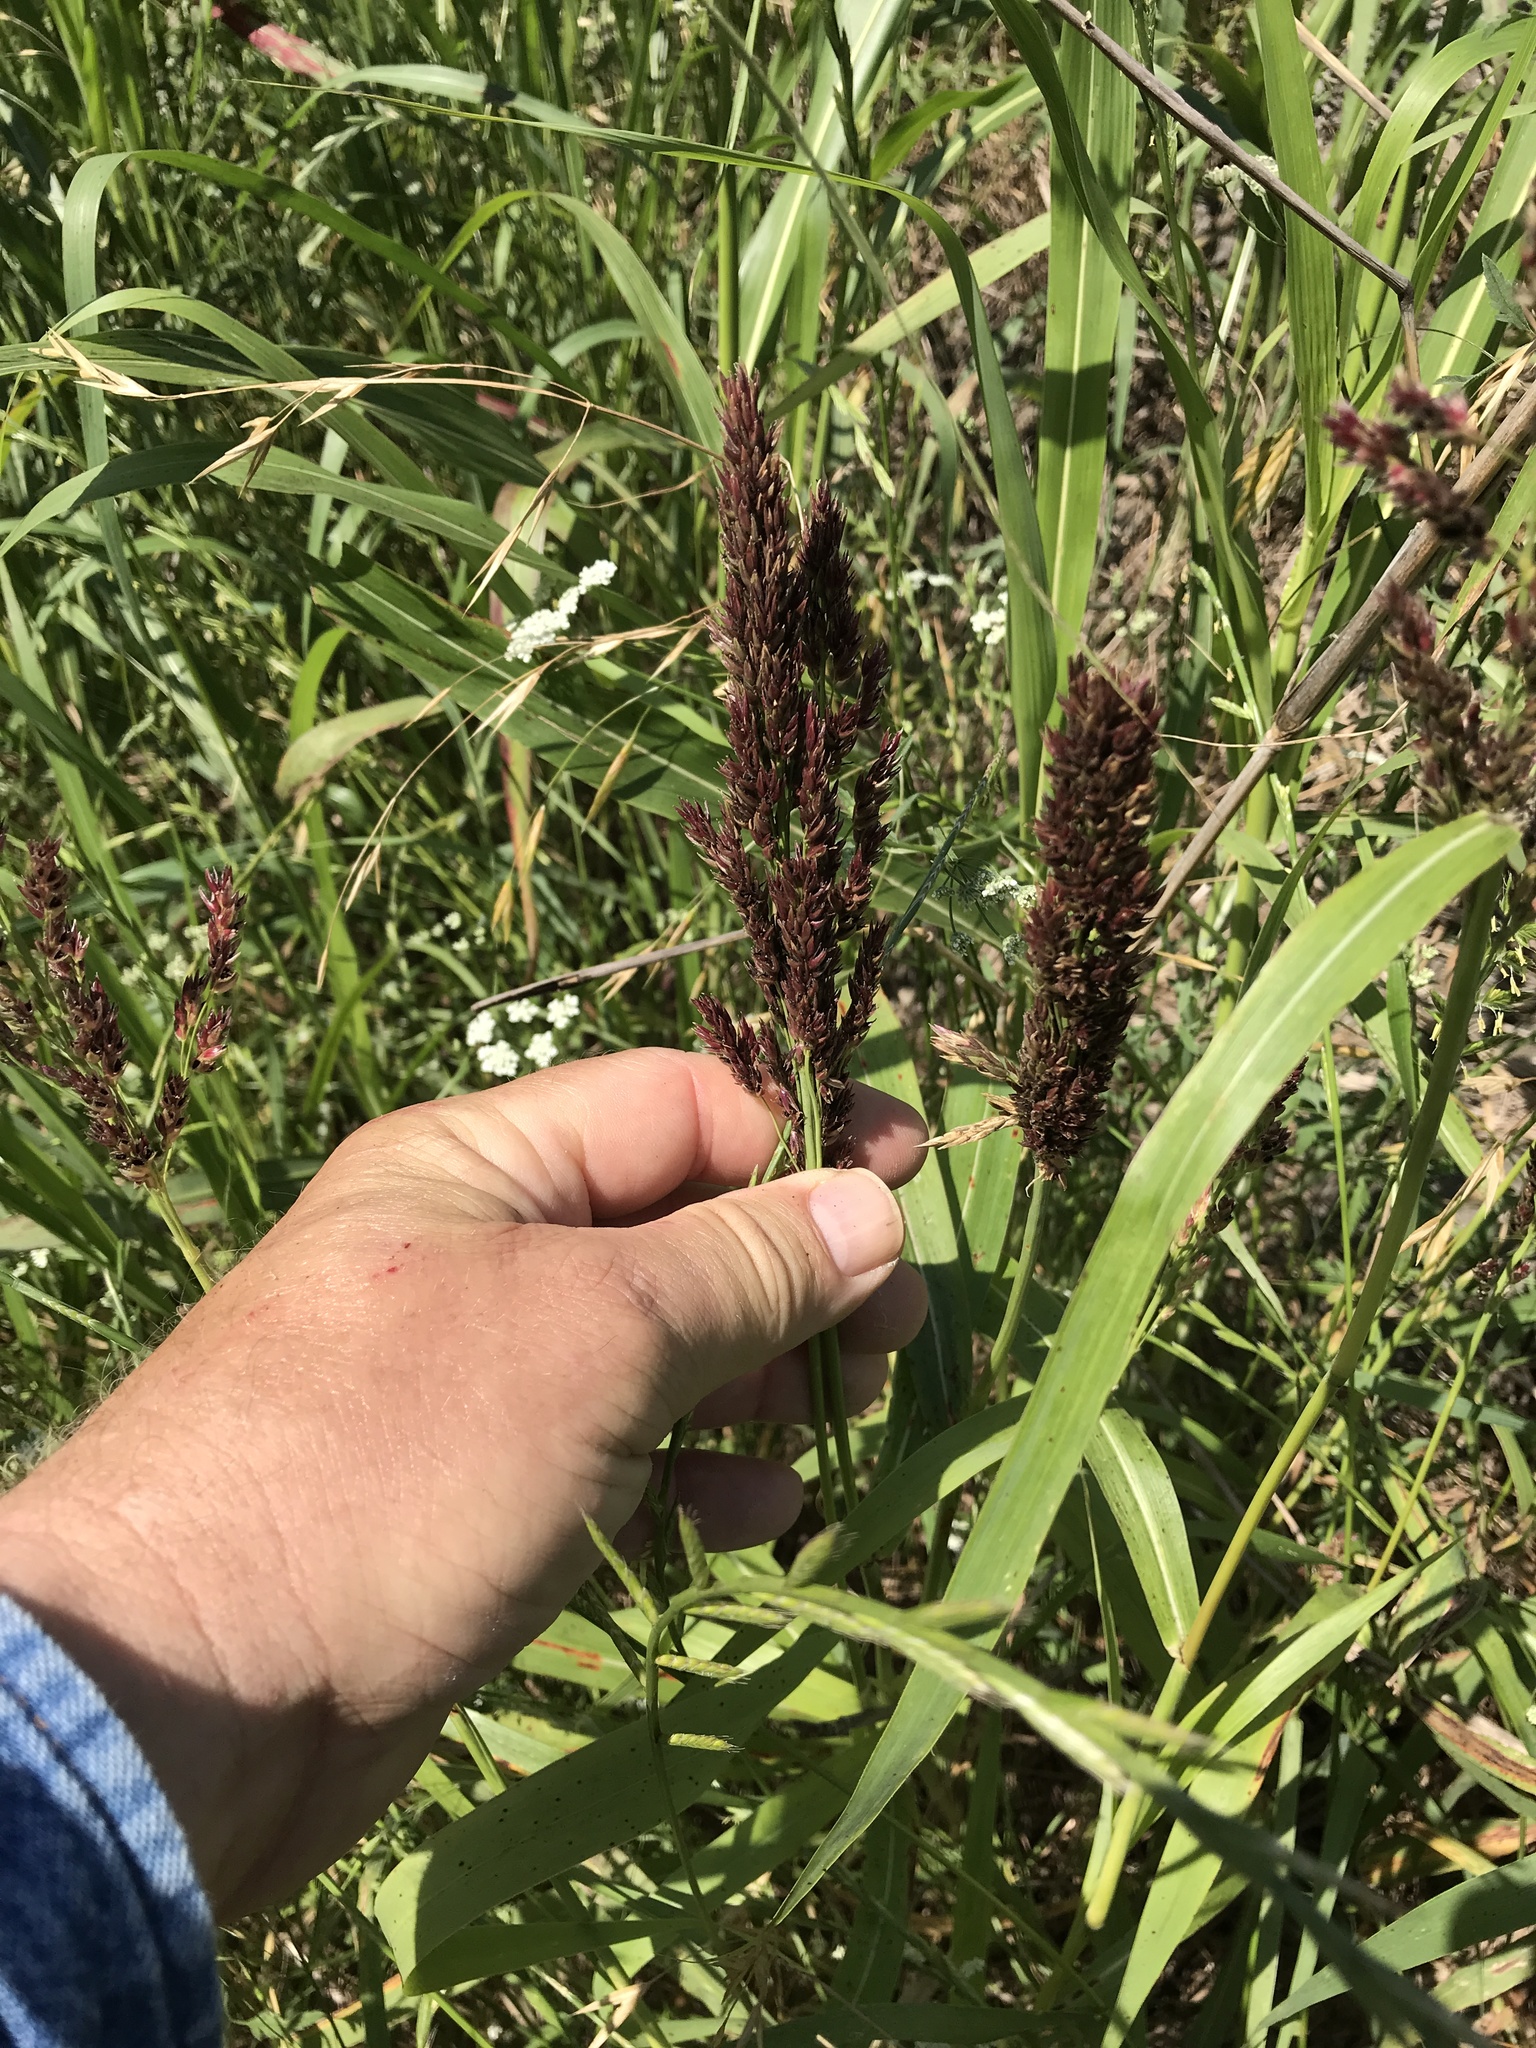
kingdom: Plantae
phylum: Tracheophyta
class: Liliopsida
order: Poales
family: Poaceae
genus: Sorghum
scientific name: Sorghum halepense
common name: Johnson-grass
